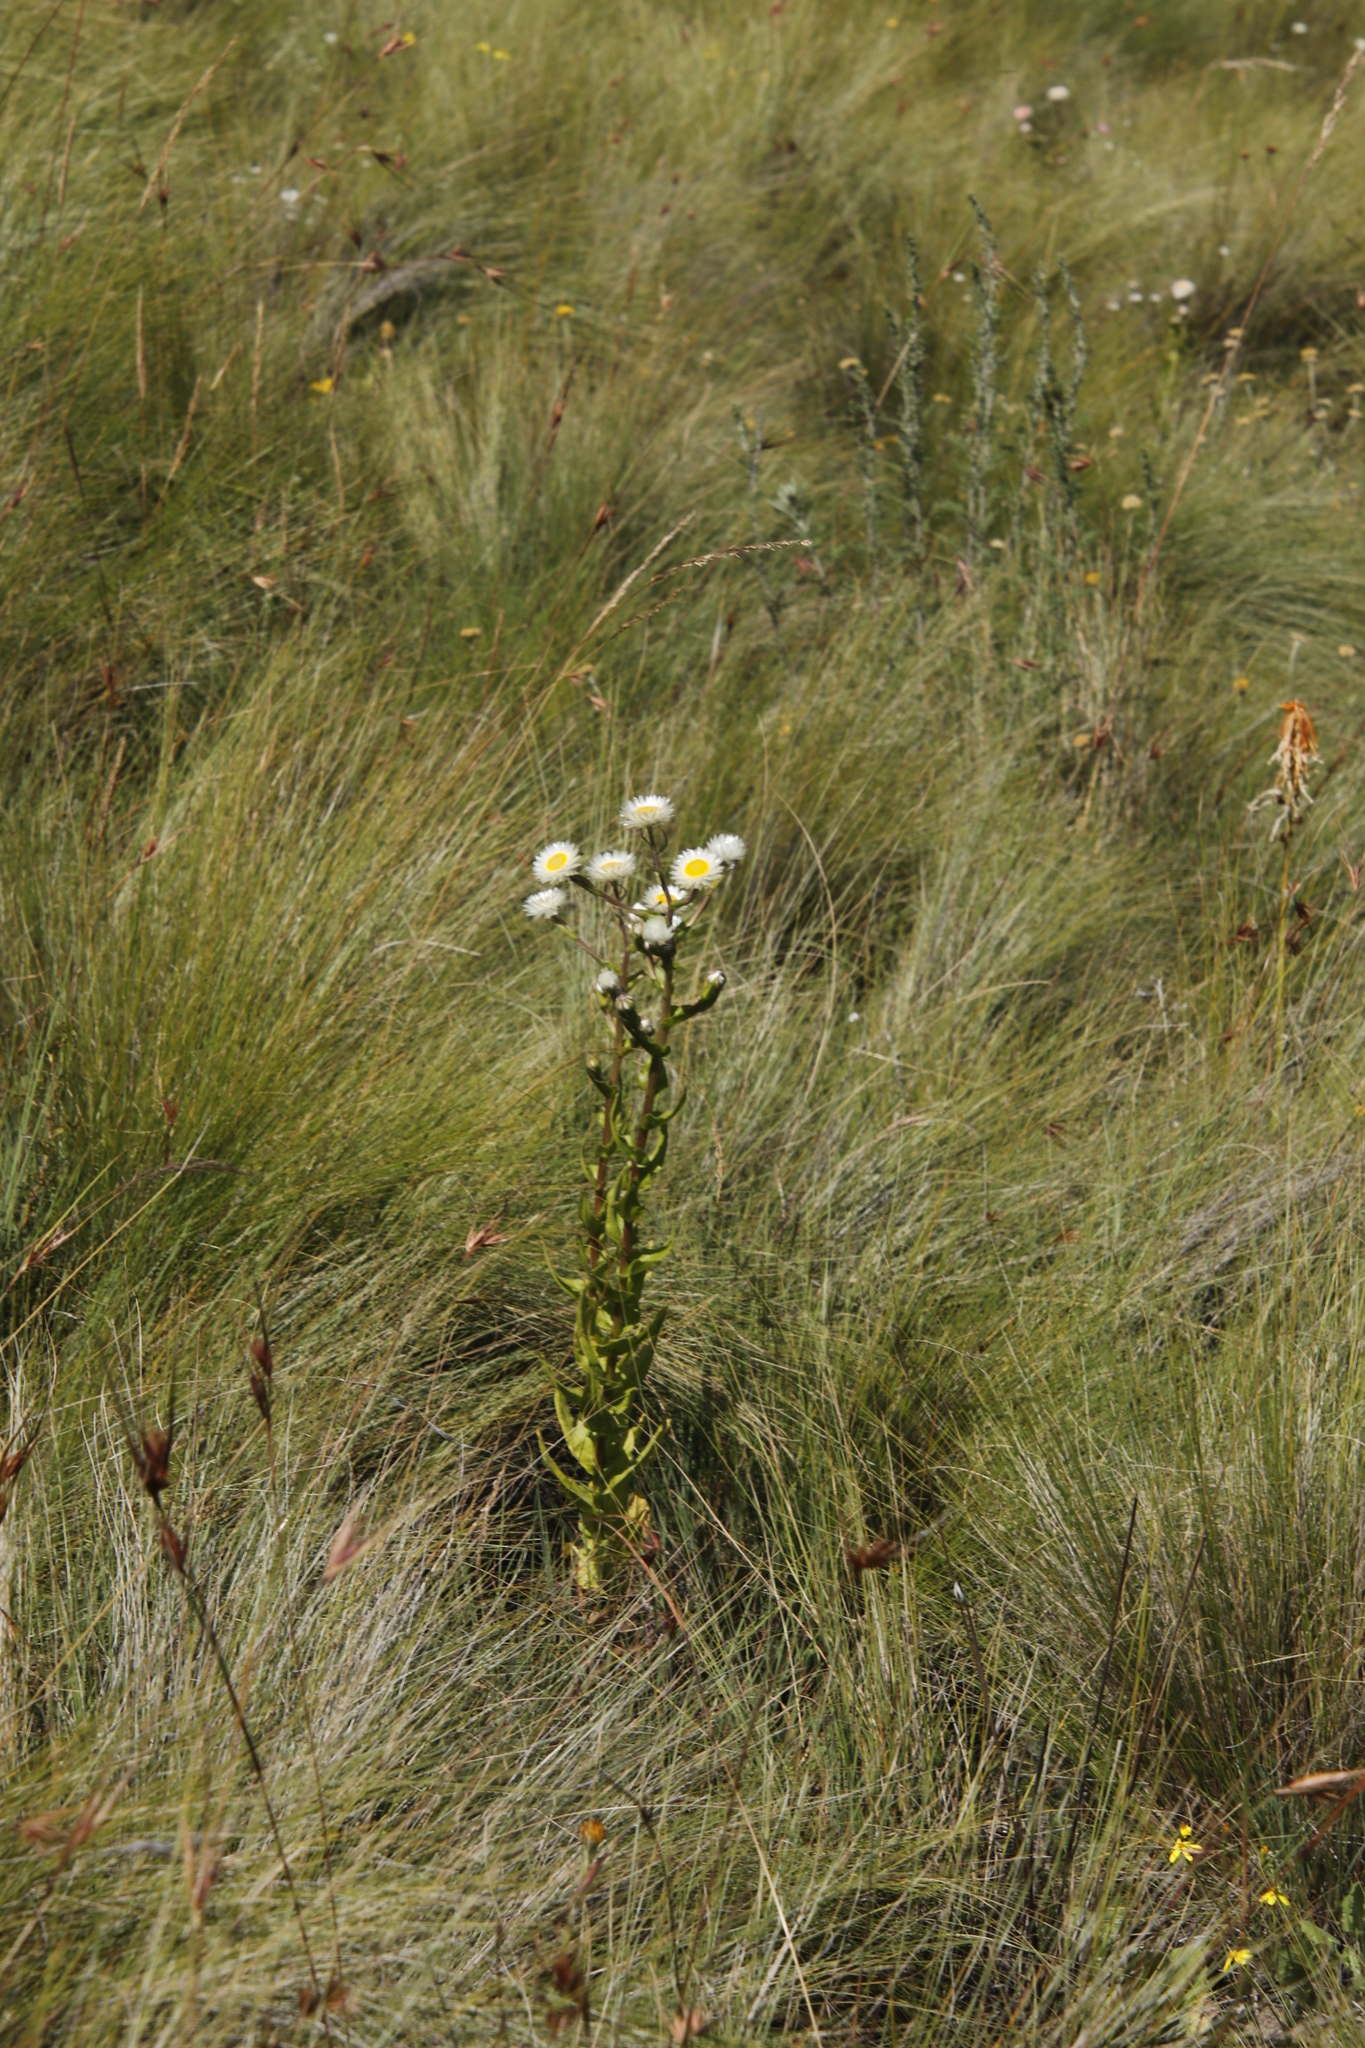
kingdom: Plantae
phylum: Tracheophyta
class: Magnoliopsida
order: Asterales
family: Asteraceae
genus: Helichrysum
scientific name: Helichrysum elegantissimum
